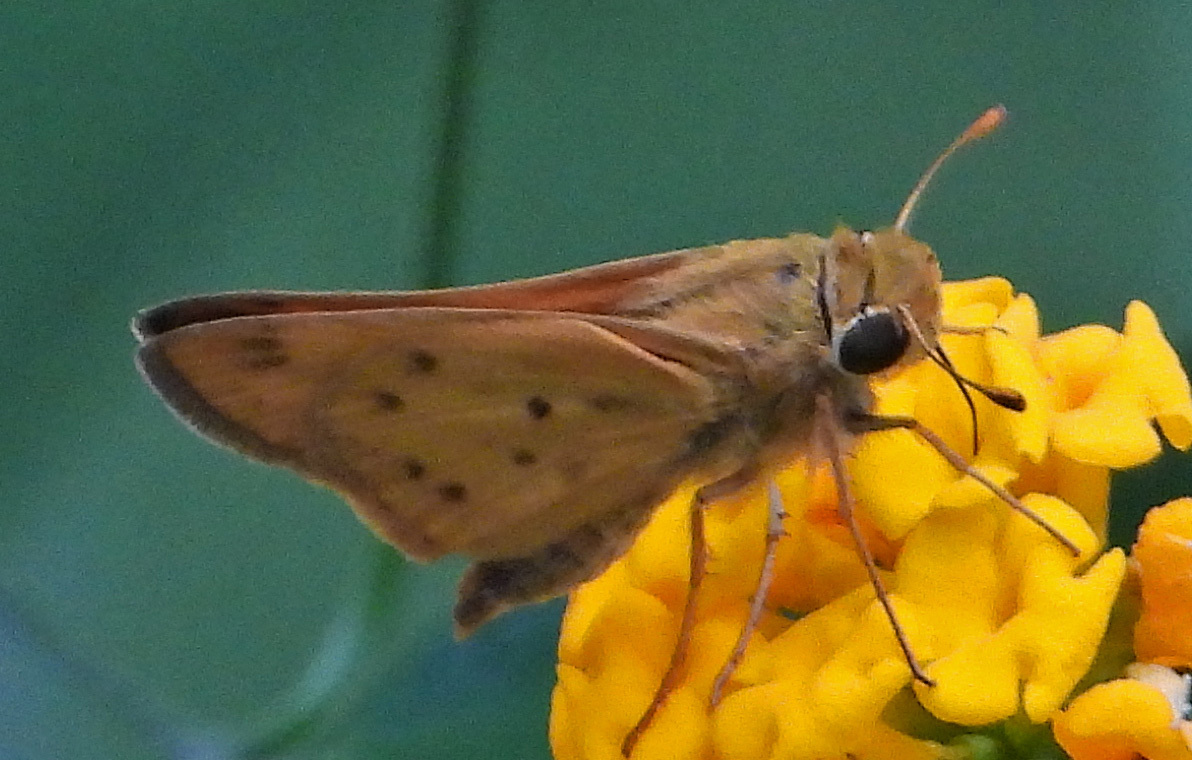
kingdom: Animalia
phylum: Arthropoda
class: Insecta
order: Lepidoptera
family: Hesperiidae
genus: Hylephila
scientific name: Hylephila phyleus
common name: Fiery skipper
